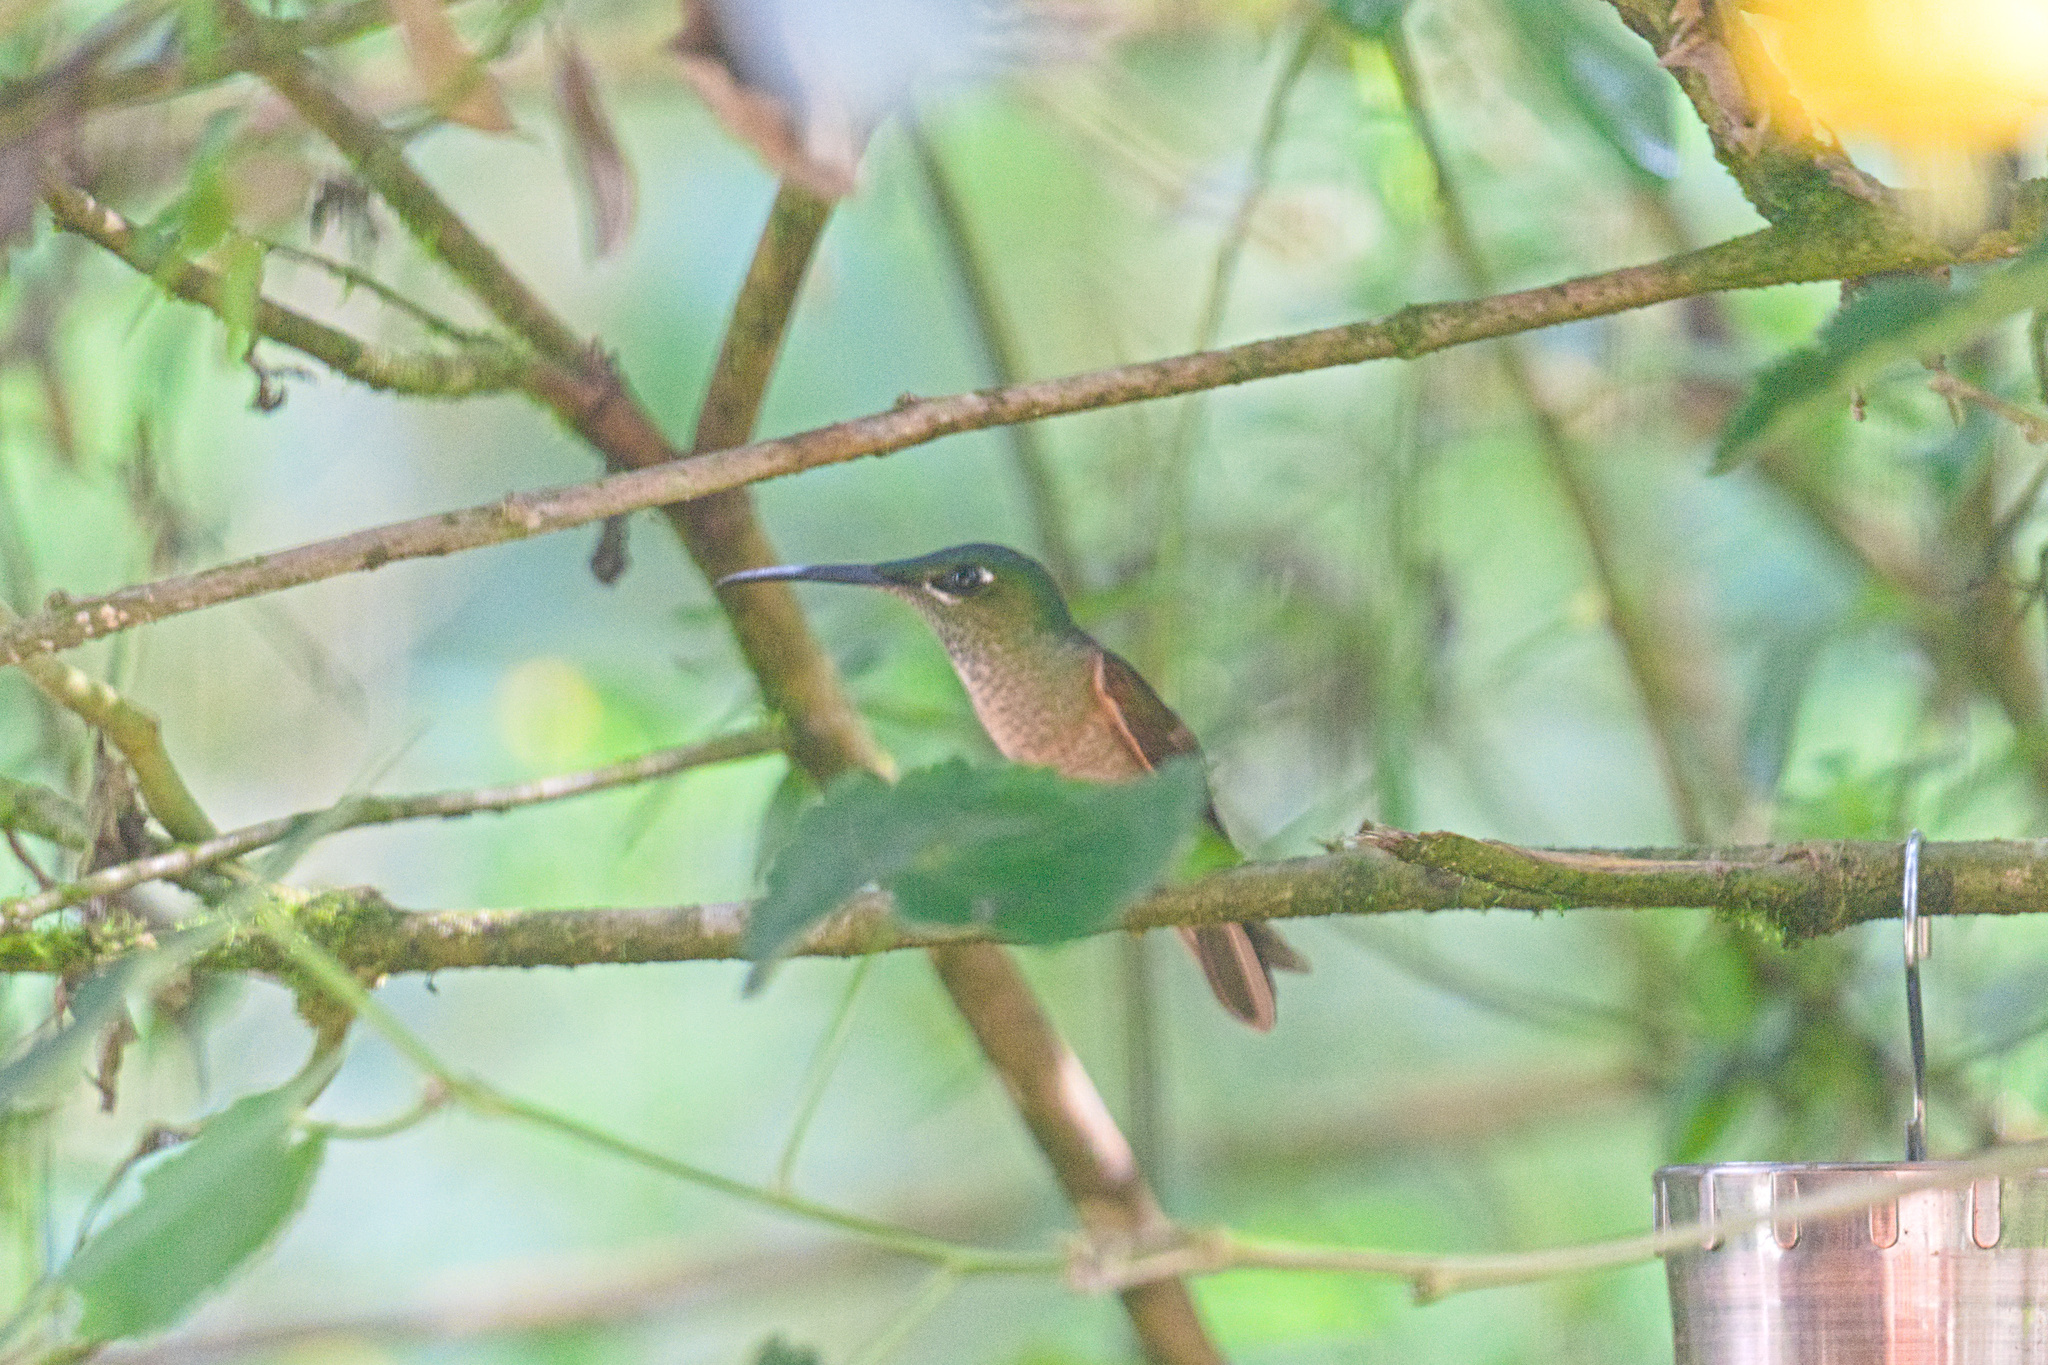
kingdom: Animalia
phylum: Chordata
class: Aves
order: Apodiformes
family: Trochilidae
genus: Heliodoxa
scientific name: Heliodoxa rubinoides
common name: Fawn-breasted brilliant
